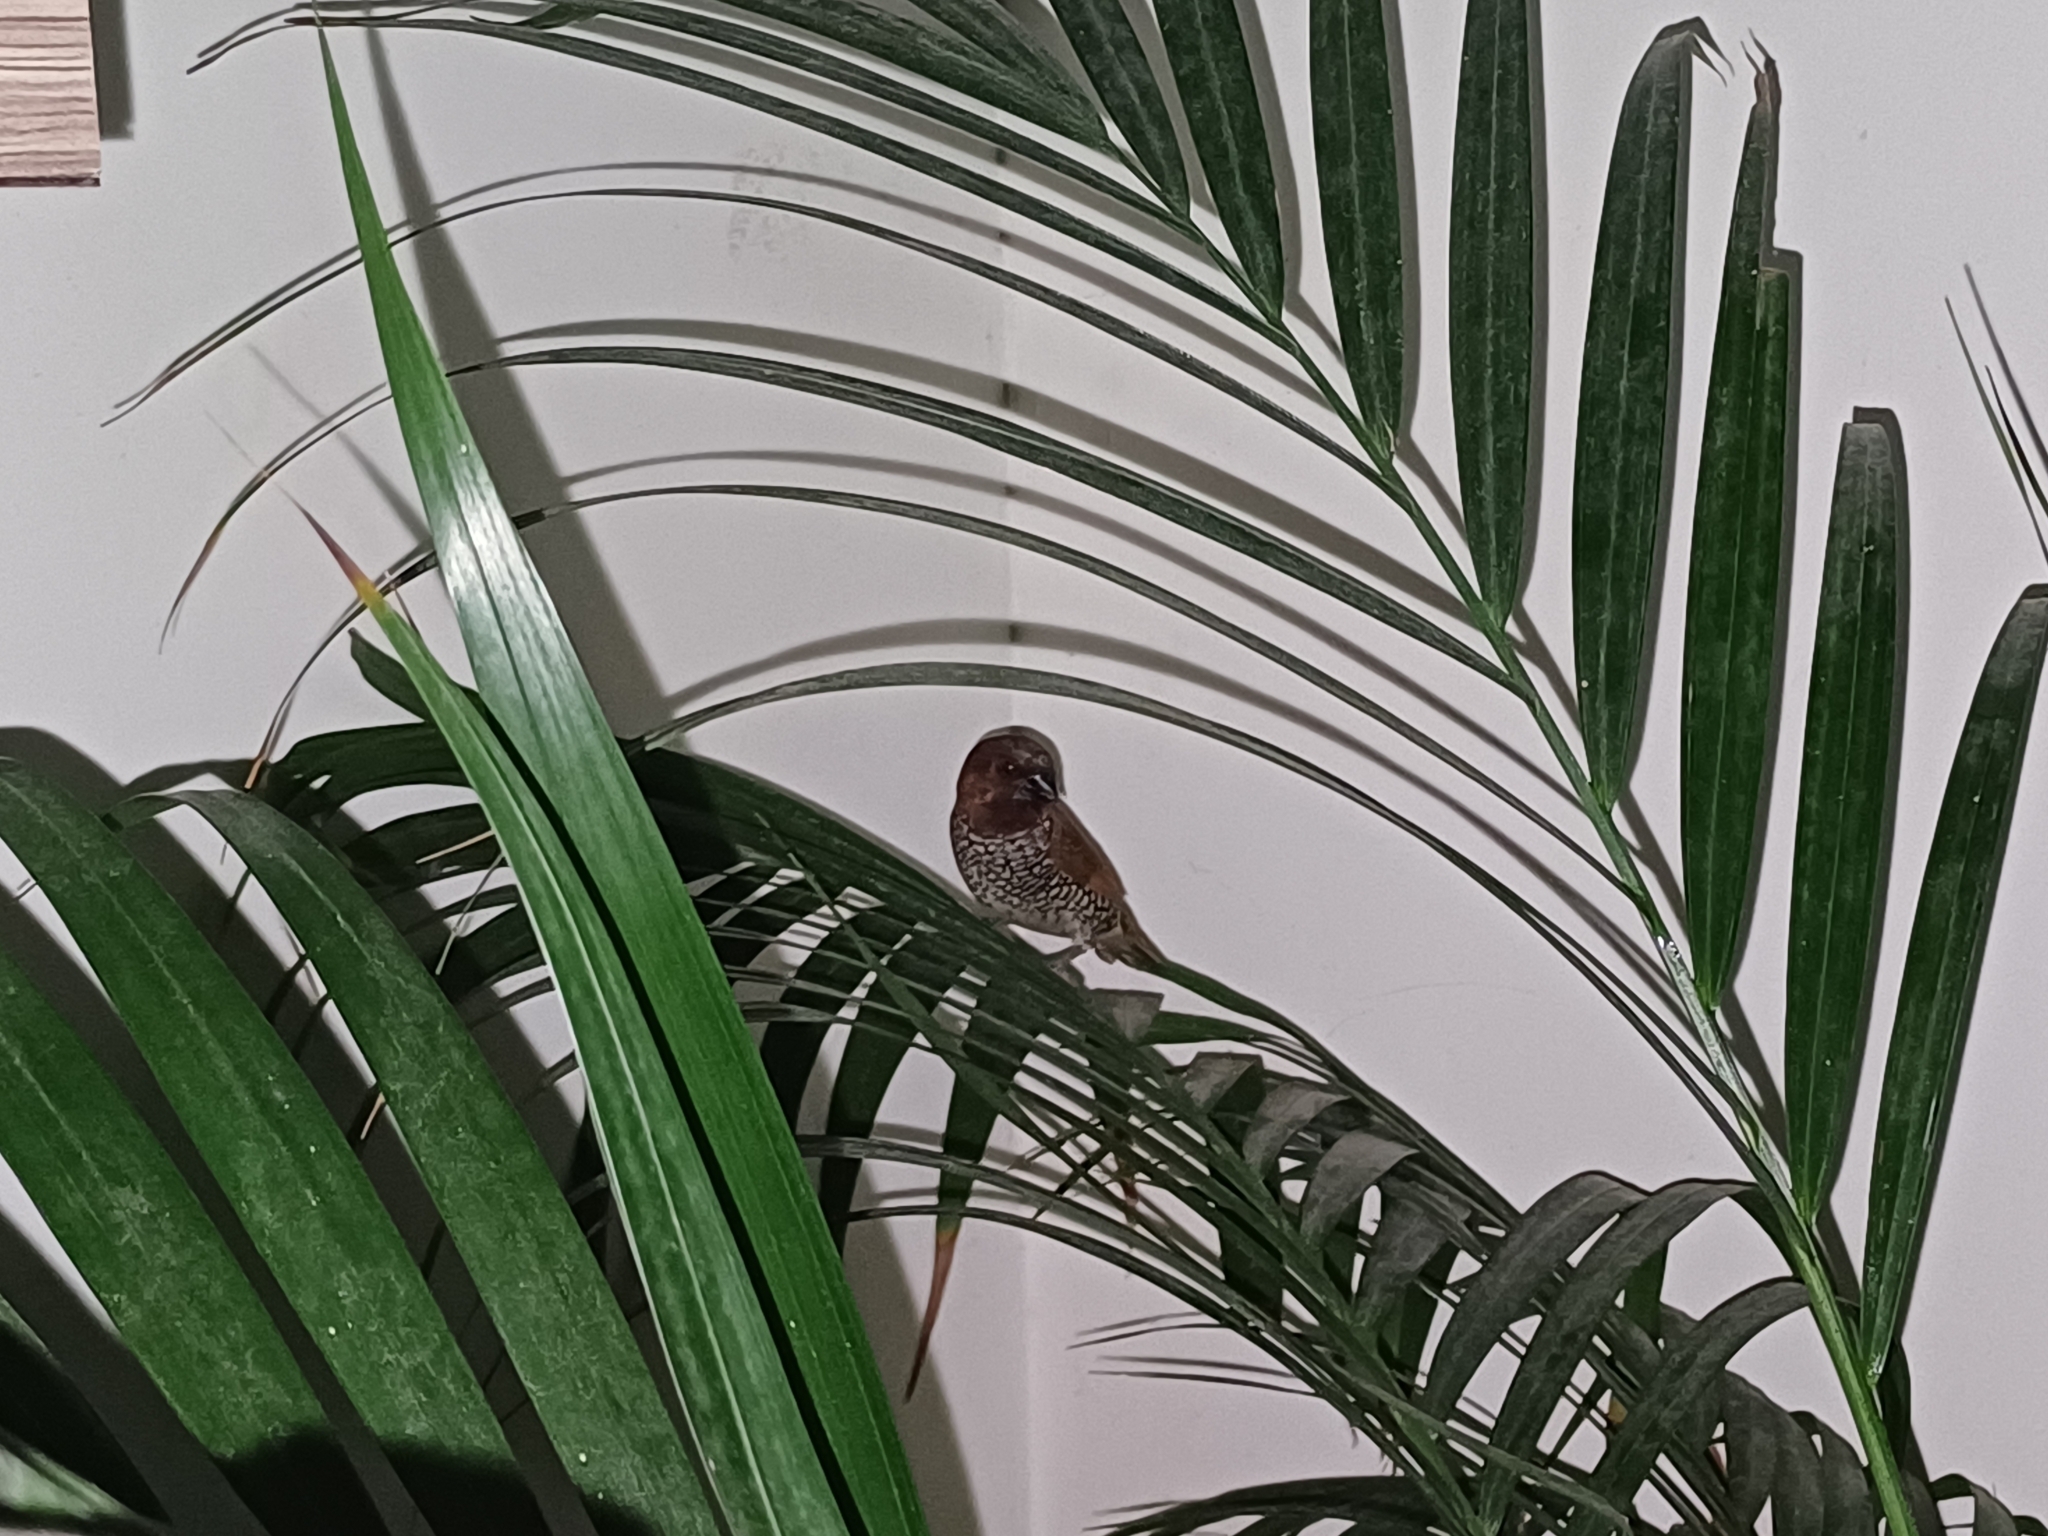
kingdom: Animalia
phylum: Chordata
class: Aves
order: Passeriformes
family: Estrildidae
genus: Lonchura
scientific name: Lonchura punctulata
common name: Scaly-breasted munia
